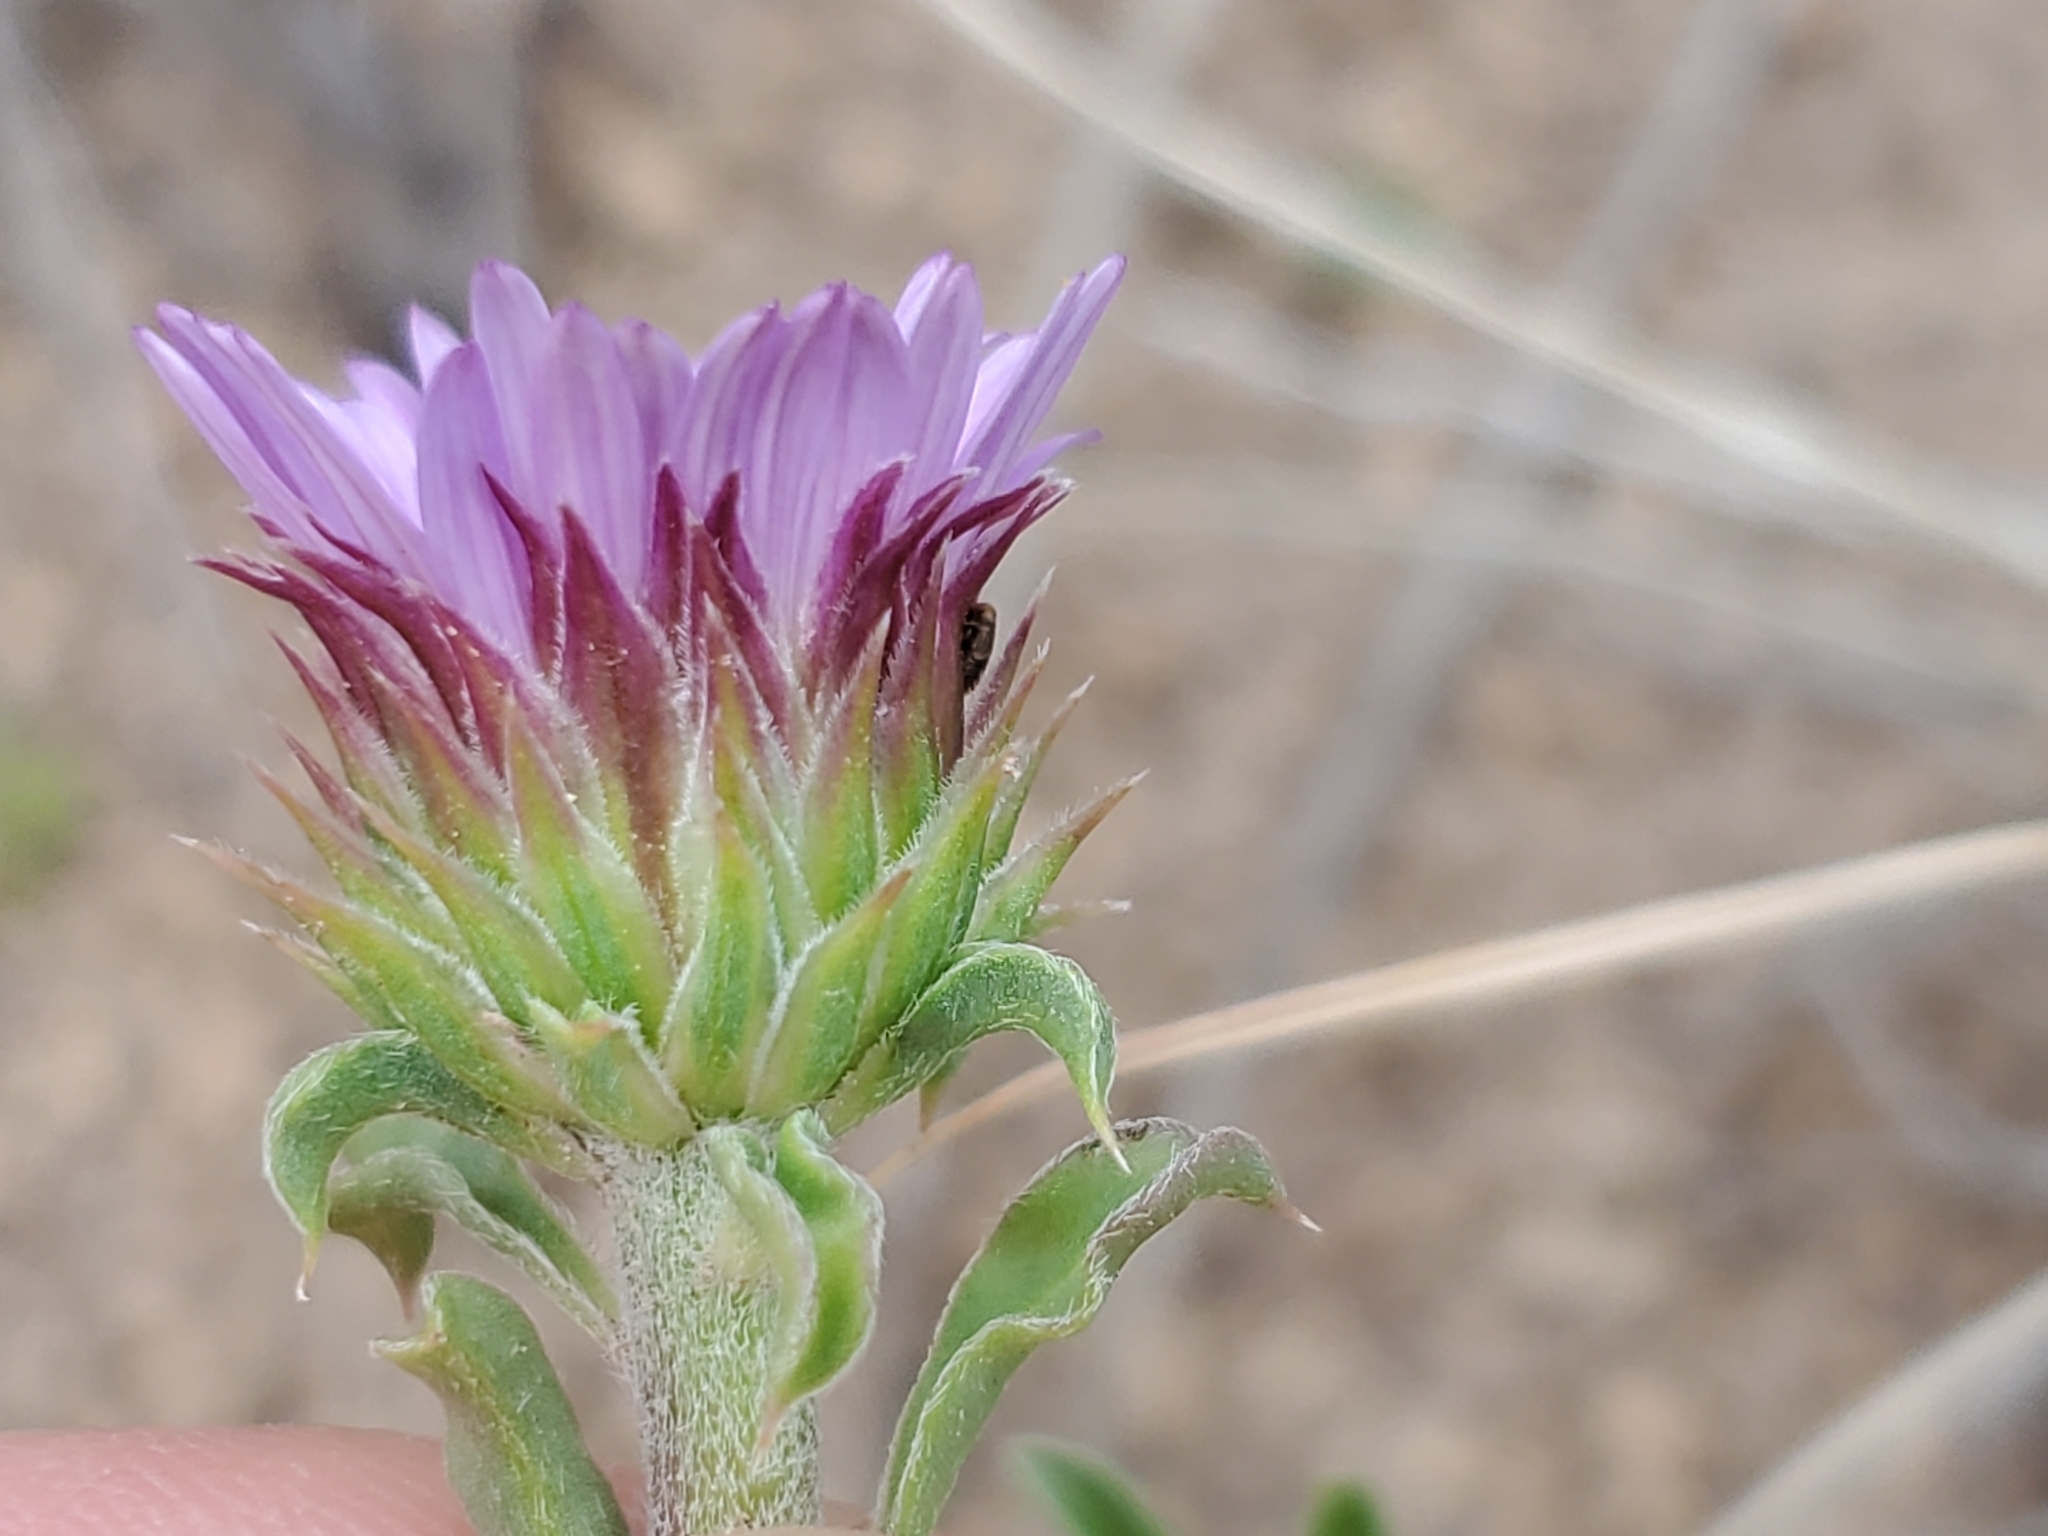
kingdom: Plantae
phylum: Tracheophyta
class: Magnoliopsida
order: Asterales
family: Asteraceae
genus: Townsendia
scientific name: Townsendia eximia
